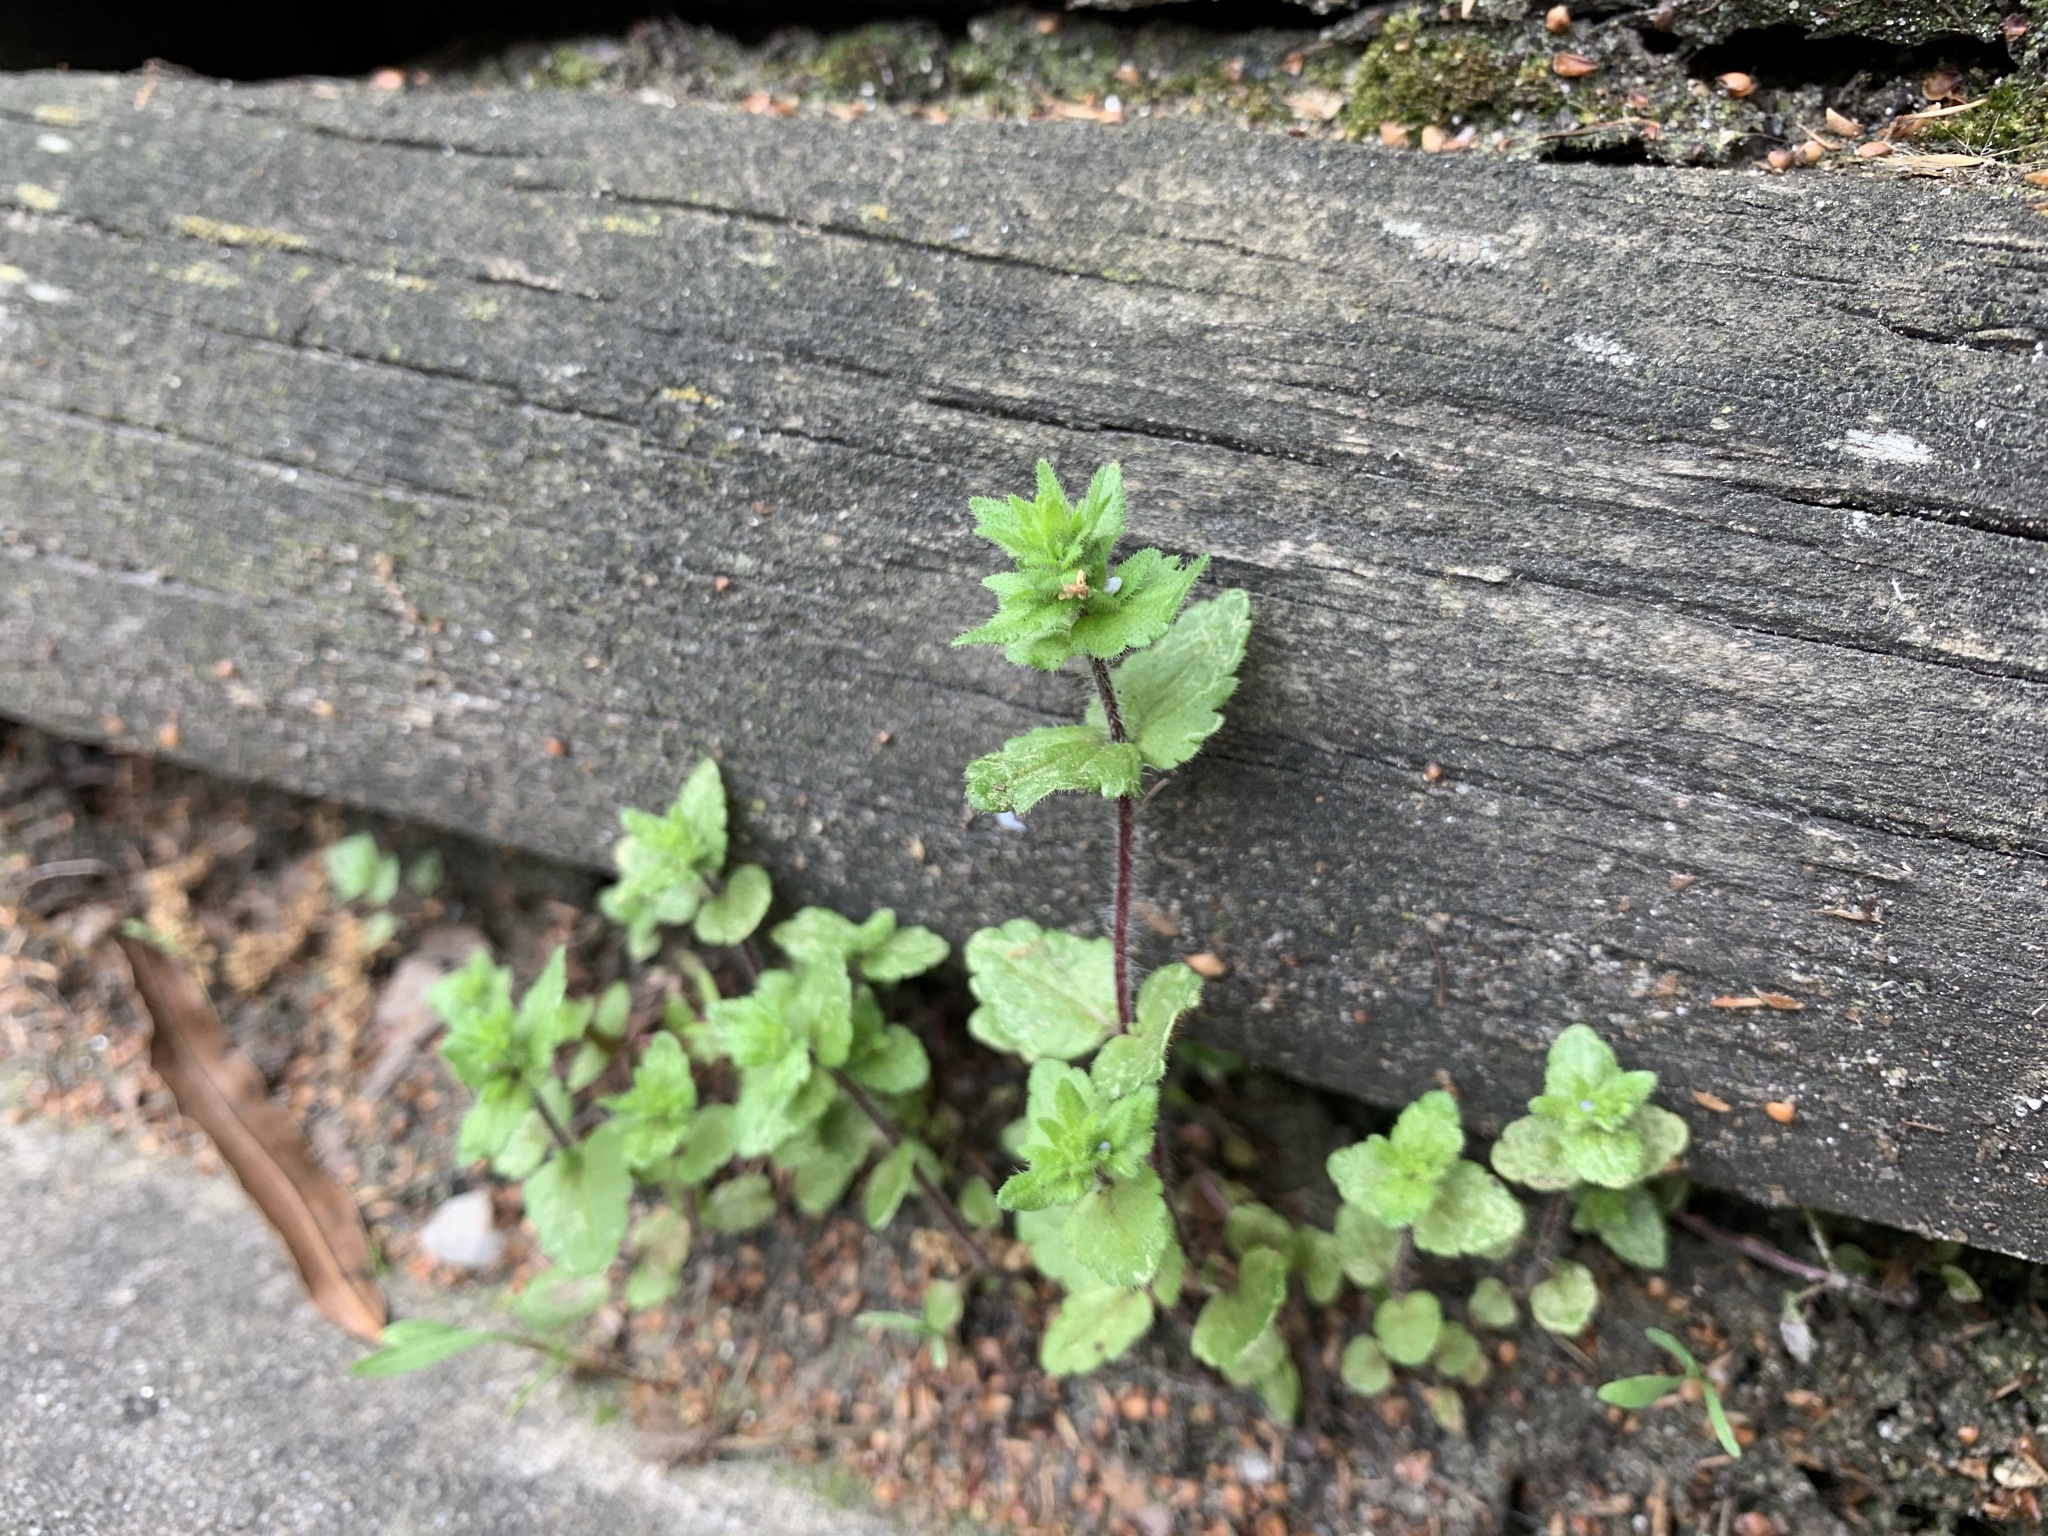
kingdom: Plantae
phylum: Tracheophyta
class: Magnoliopsida
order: Lamiales
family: Plantaginaceae
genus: Veronica
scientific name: Veronica arvensis
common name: Corn speedwell
